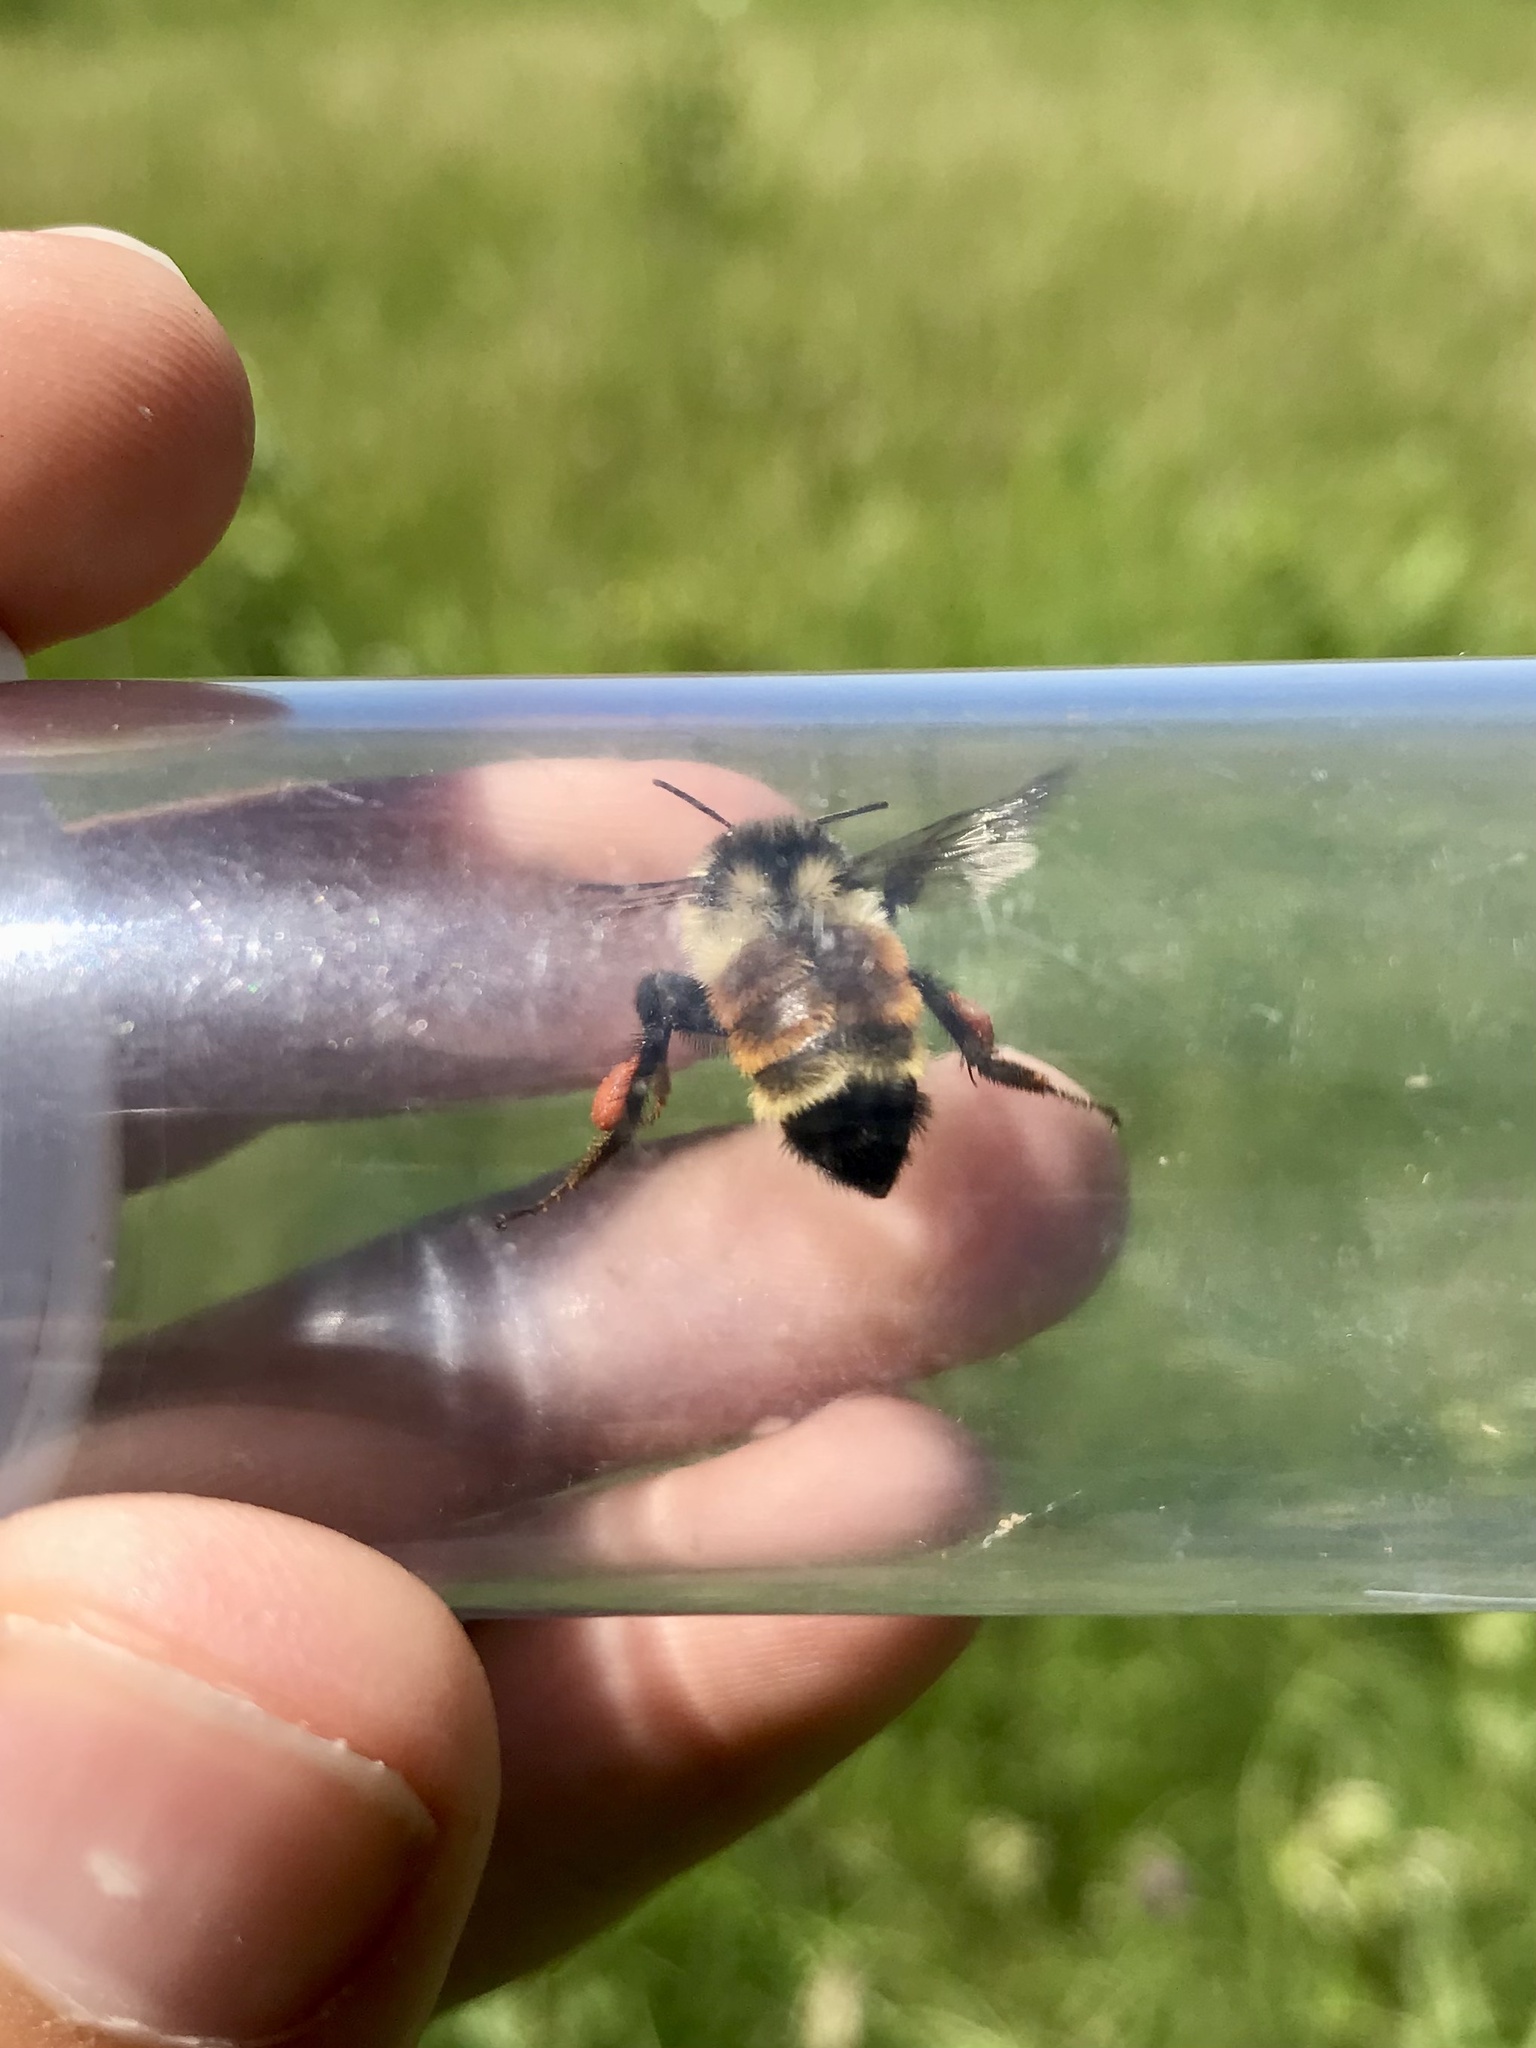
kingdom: Animalia
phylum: Arthropoda
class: Insecta
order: Hymenoptera
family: Apidae
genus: Bombus
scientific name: Bombus ternarius
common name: Tri-colored bumble bee
